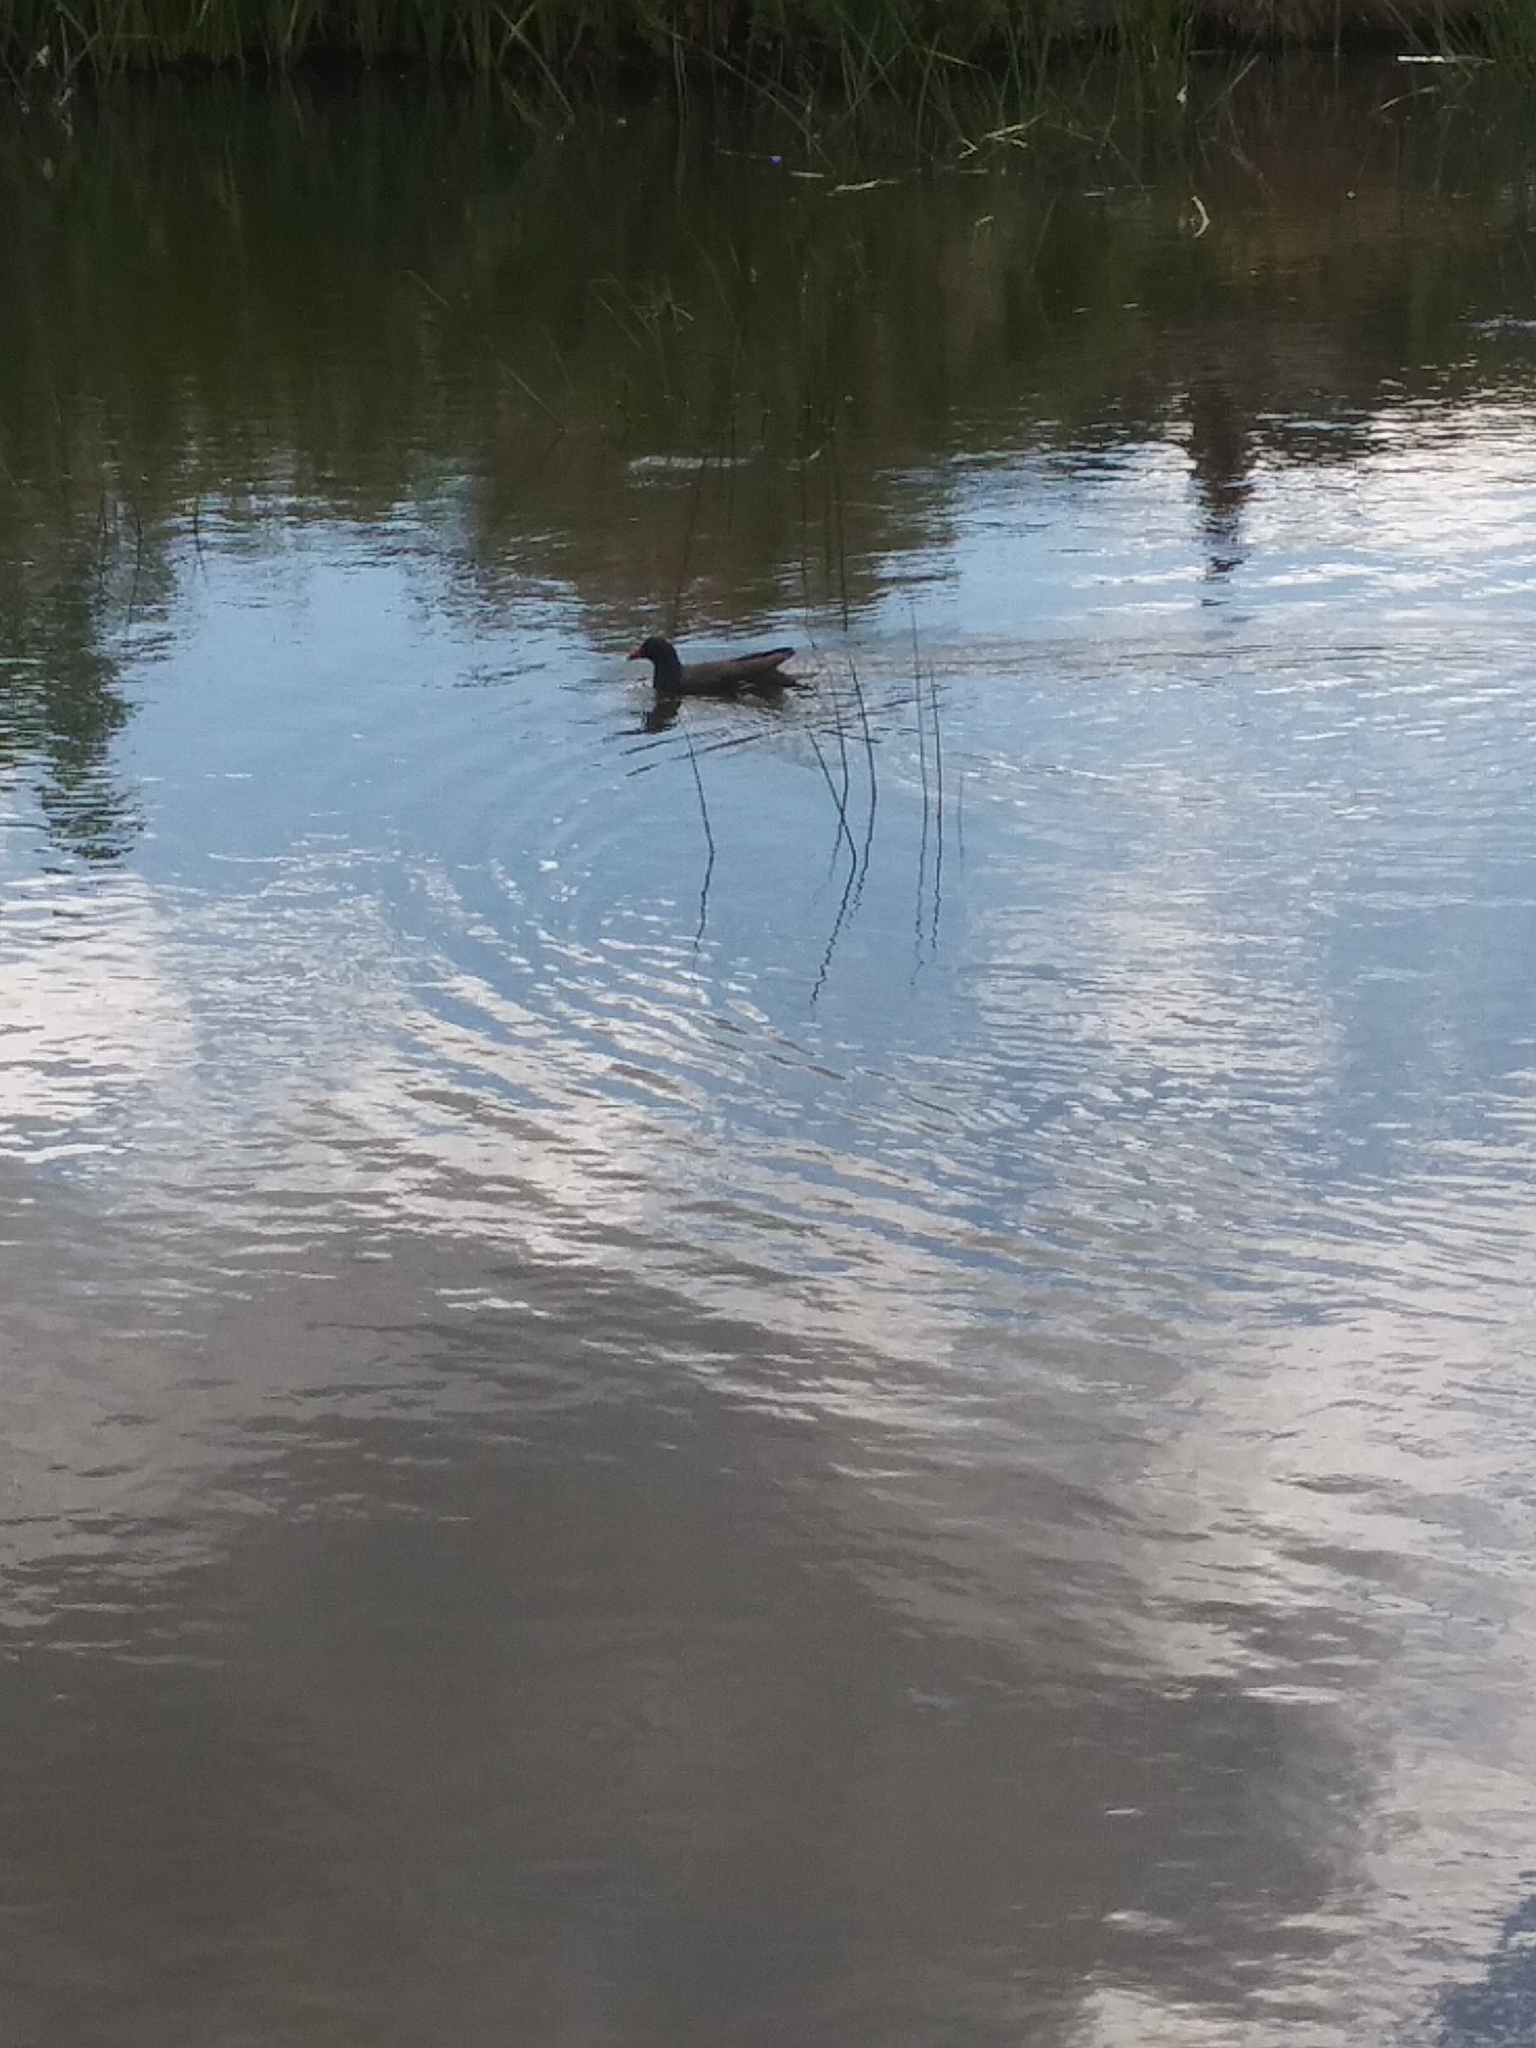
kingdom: Animalia
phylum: Chordata
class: Aves
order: Gruiformes
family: Rallidae
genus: Gallinula
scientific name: Gallinula chloropus
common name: Common moorhen
